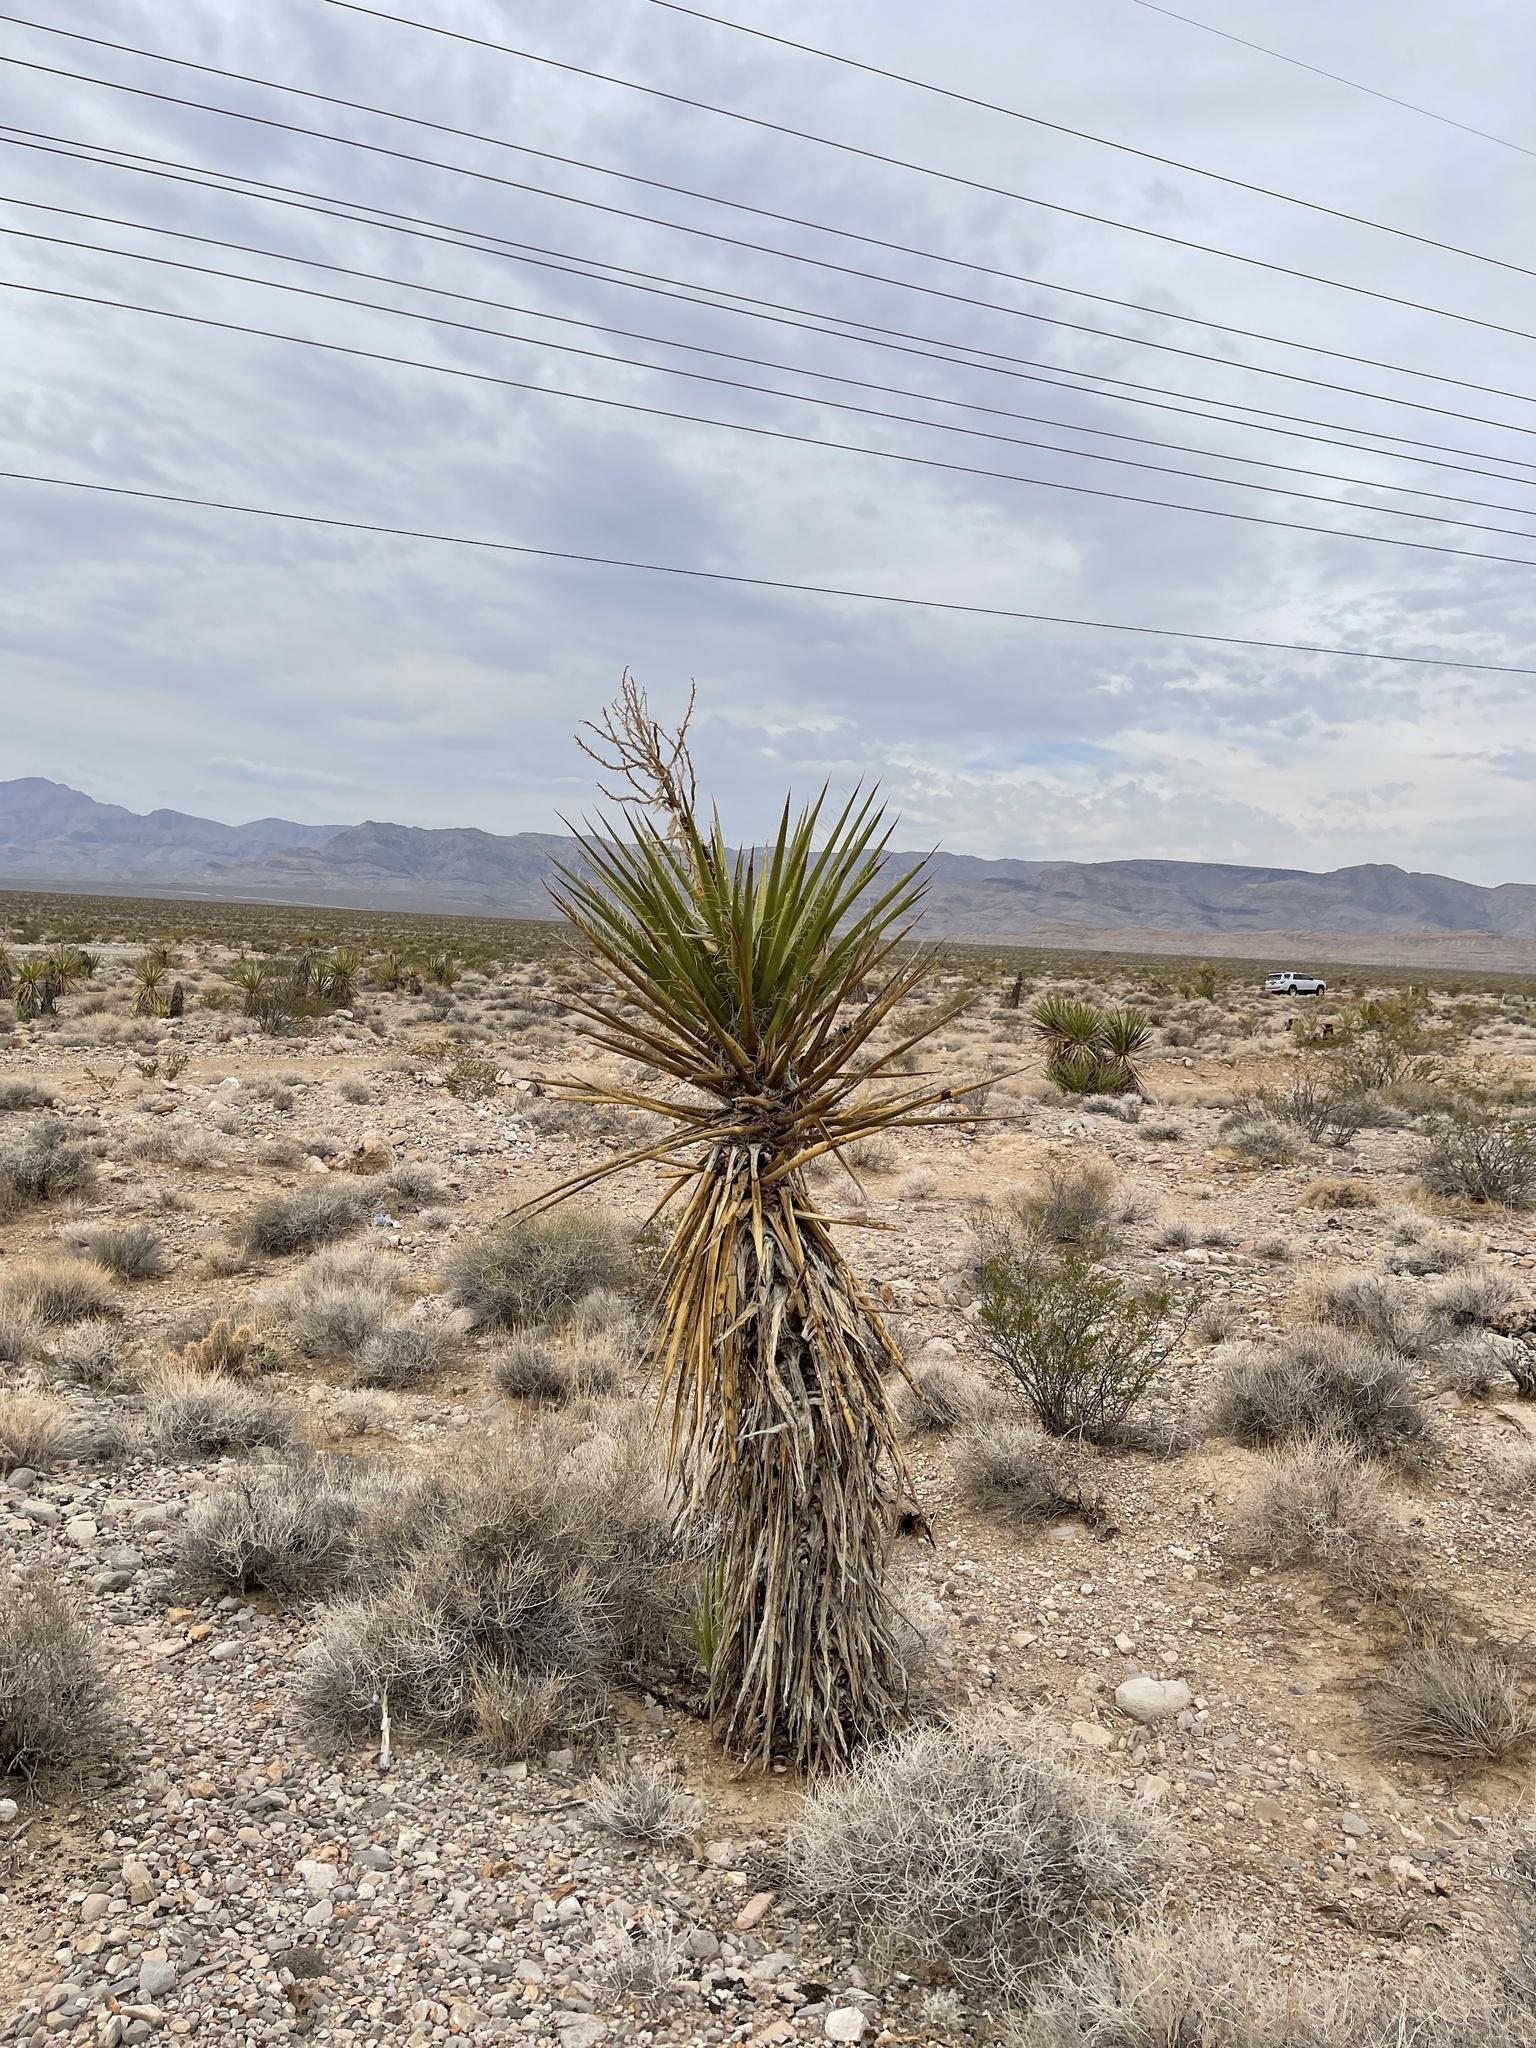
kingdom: Plantae
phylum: Tracheophyta
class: Liliopsida
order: Asparagales
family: Asparagaceae
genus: Yucca
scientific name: Yucca schidigera
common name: Mojave yucca
